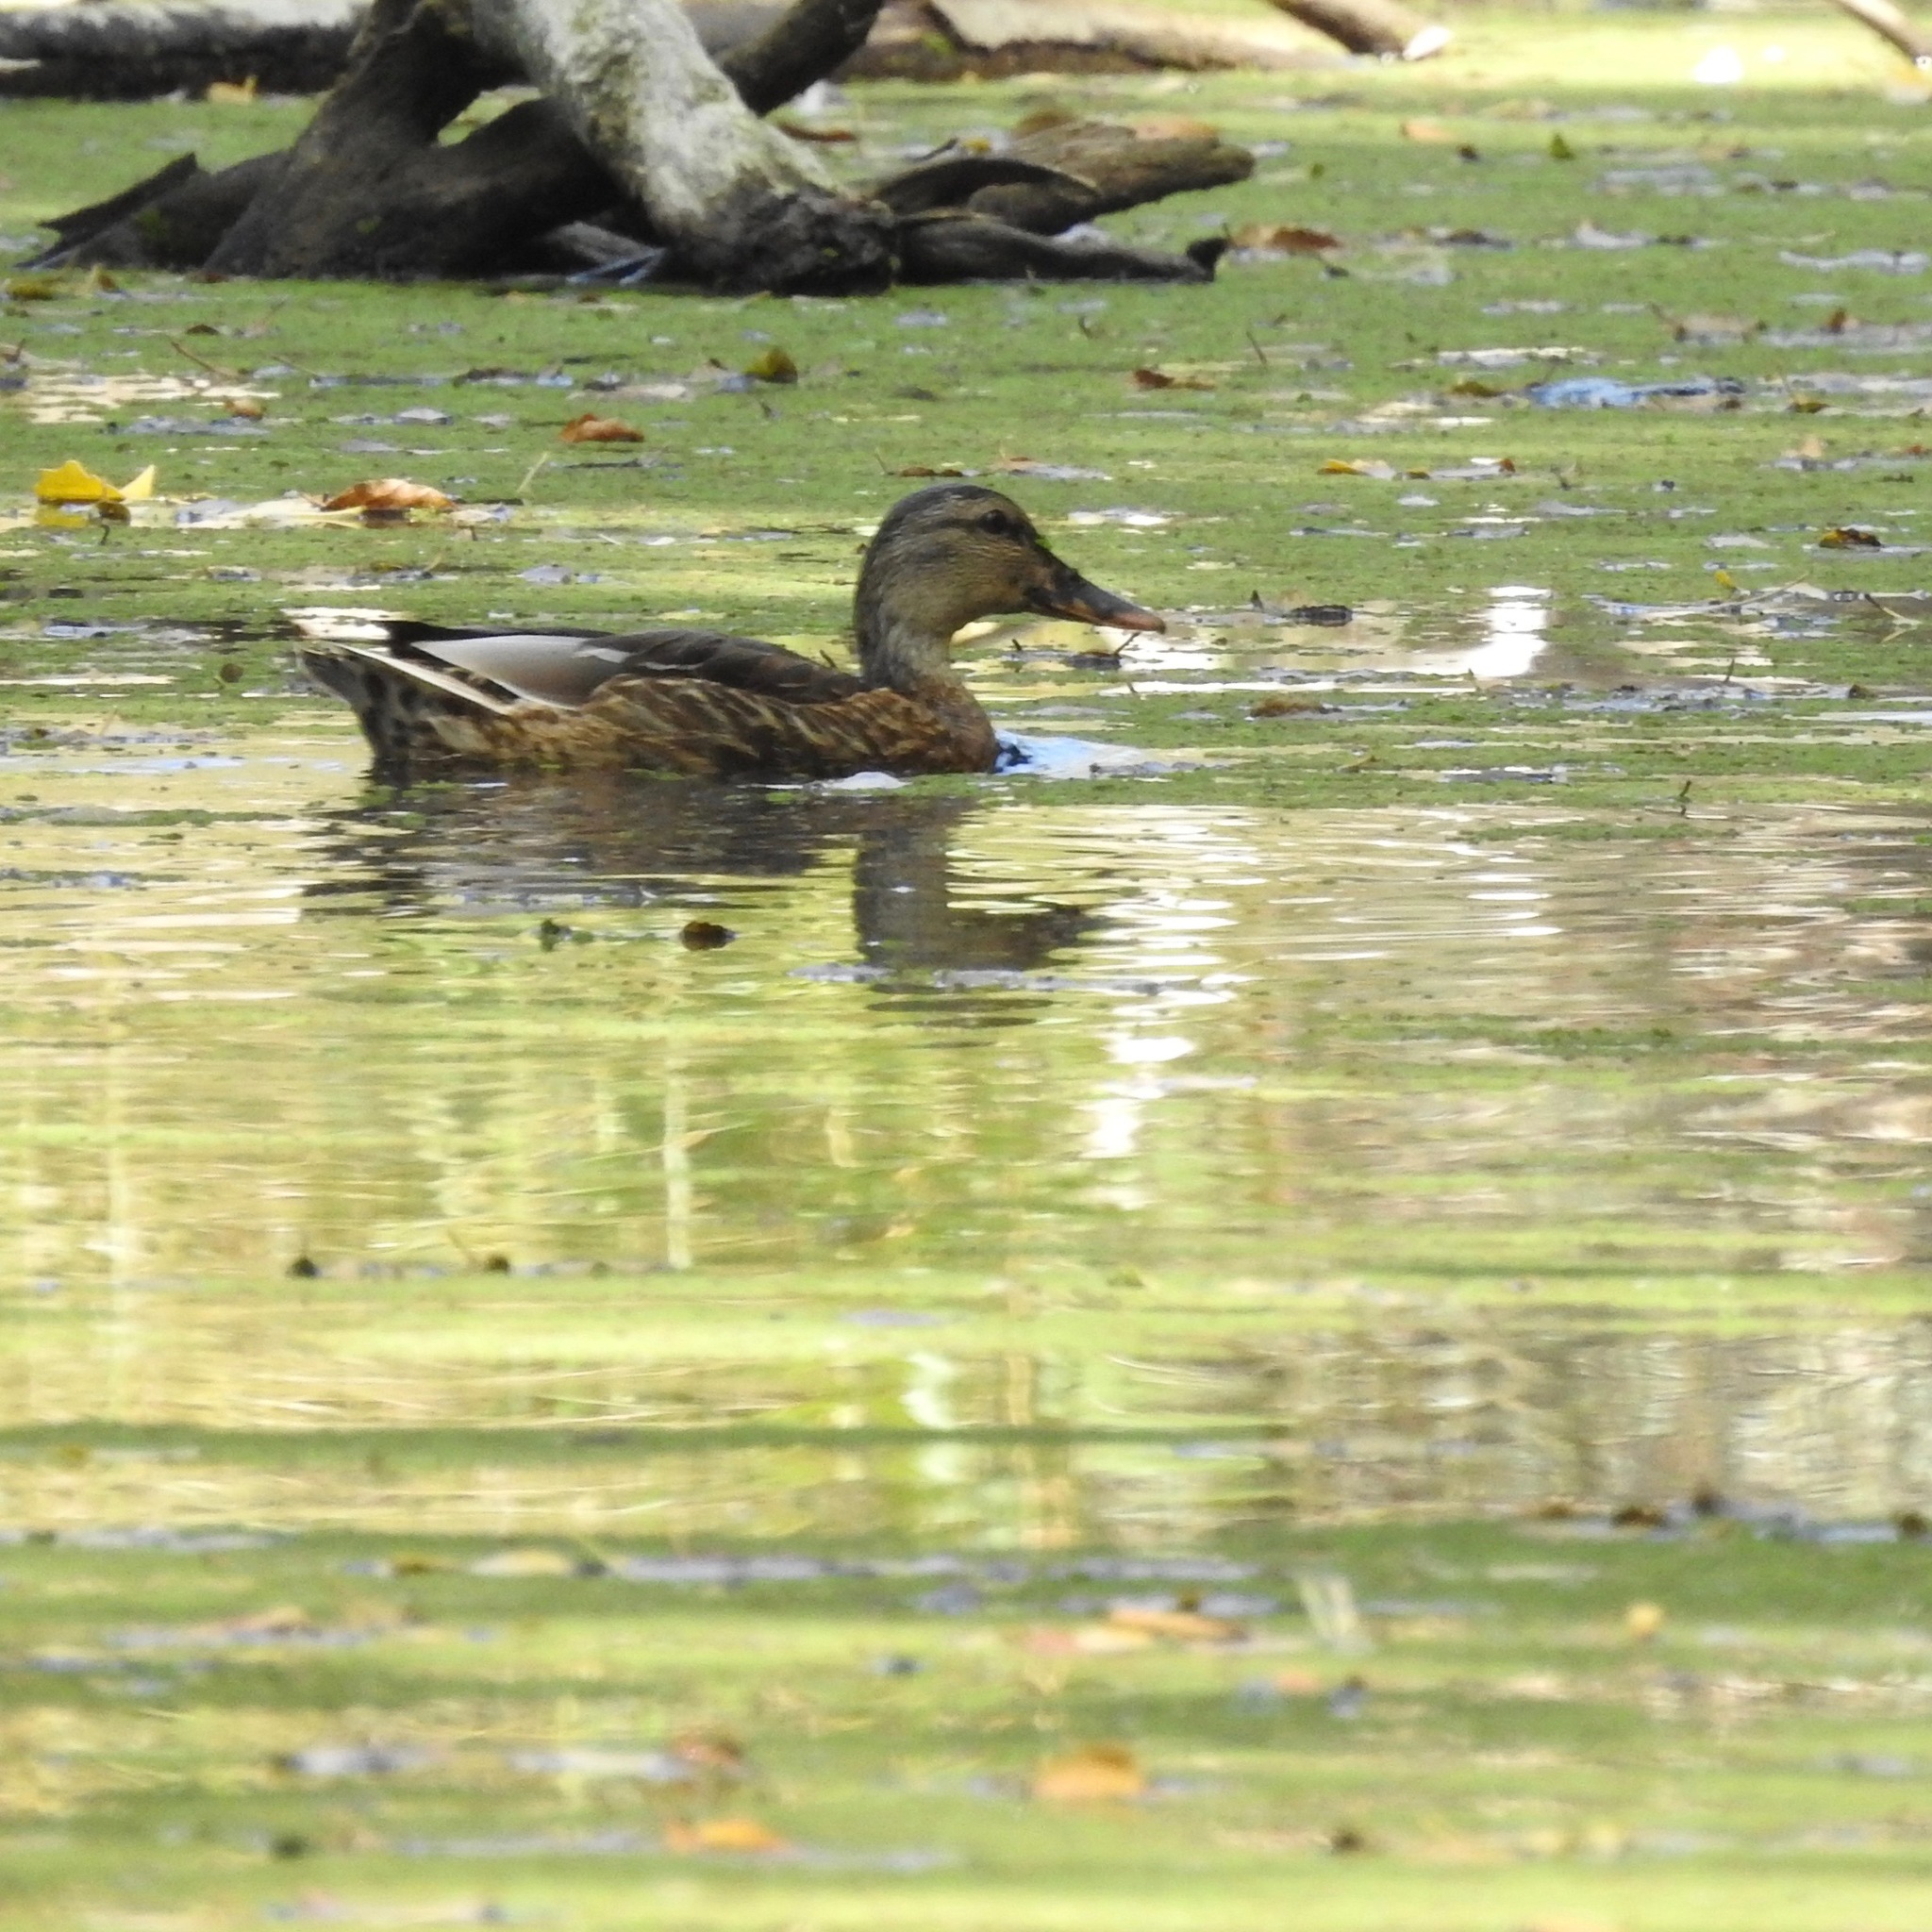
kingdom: Animalia
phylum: Chordata
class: Aves
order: Anseriformes
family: Anatidae
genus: Anas
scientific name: Anas platyrhynchos
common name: Mallard
